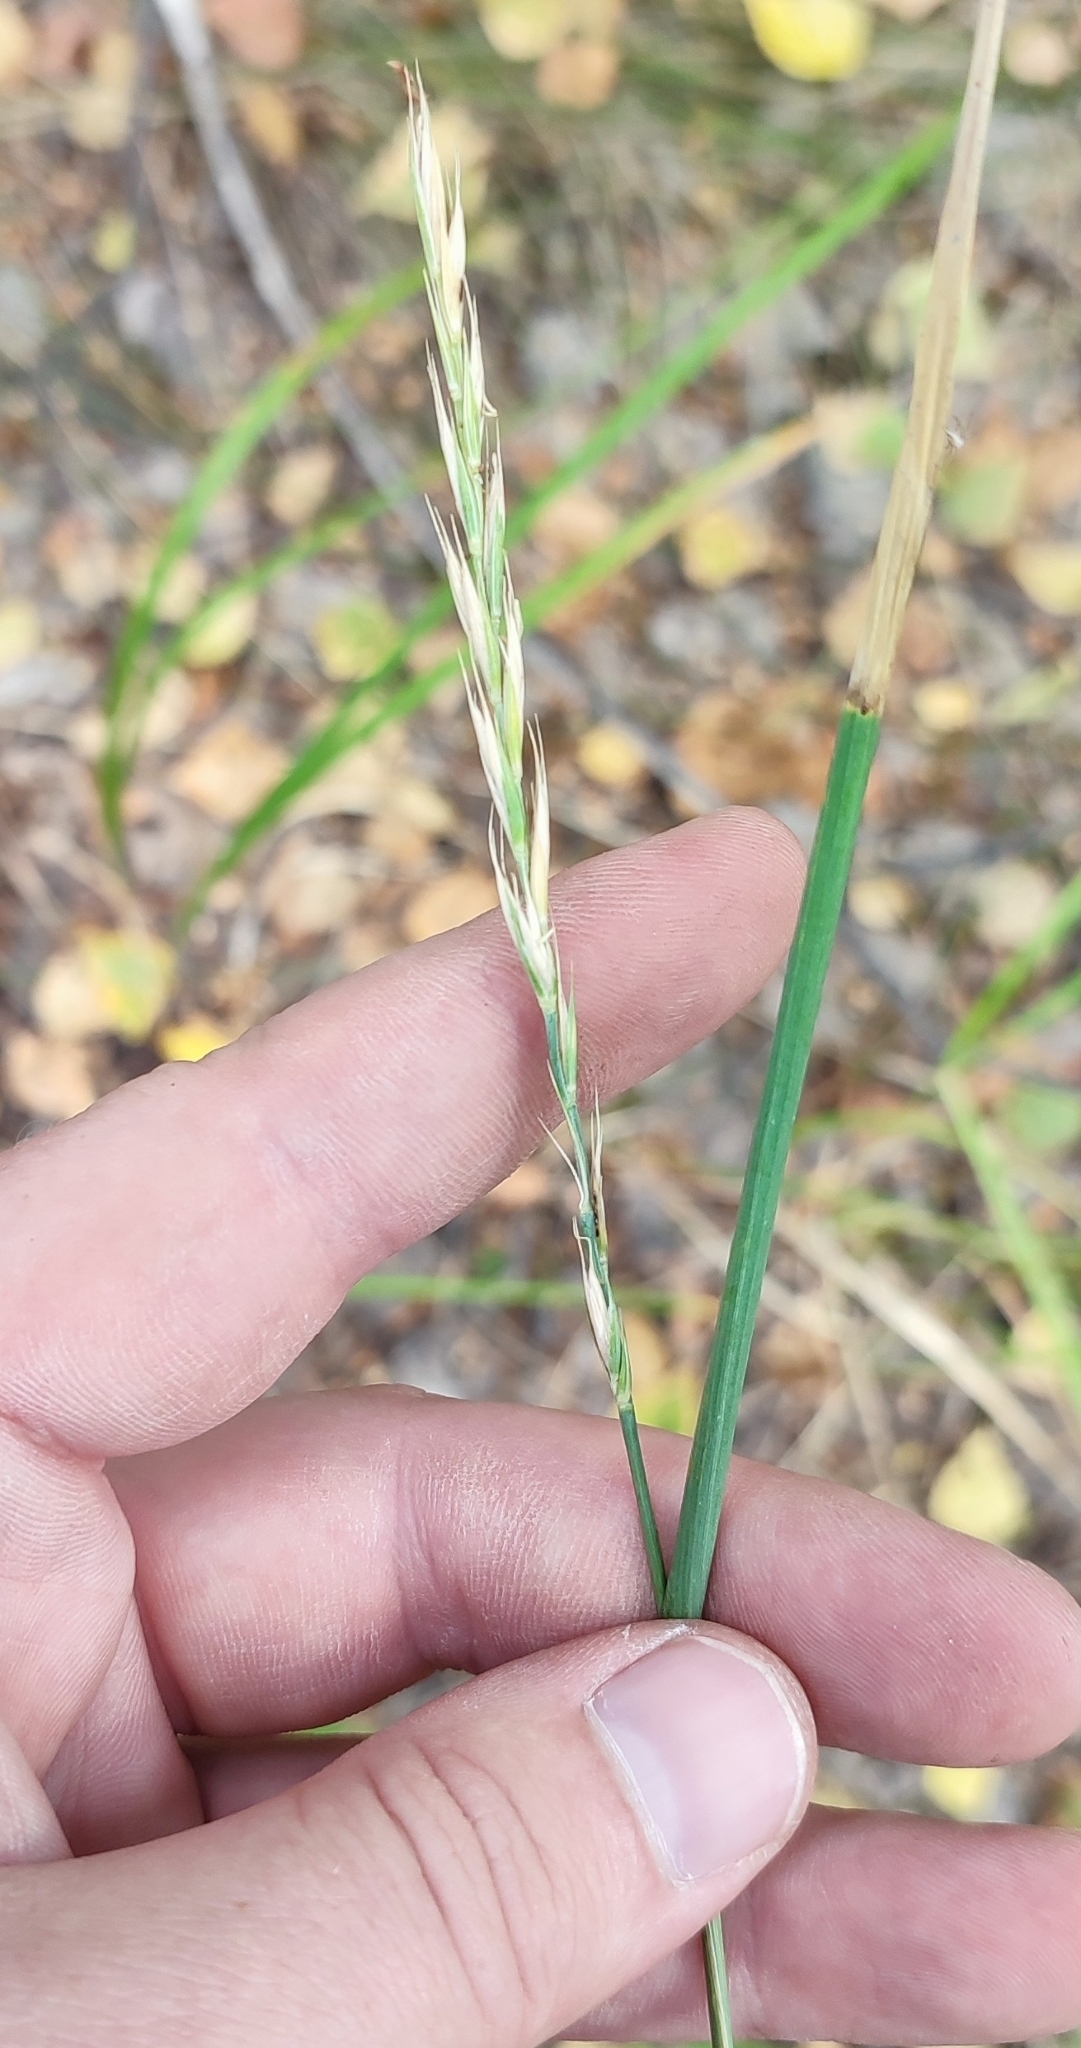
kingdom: Plantae
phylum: Tracheophyta
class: Liliopsida
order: Poales
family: Poaceae
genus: Elymus
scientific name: Elymus repens
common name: Quackgrass
